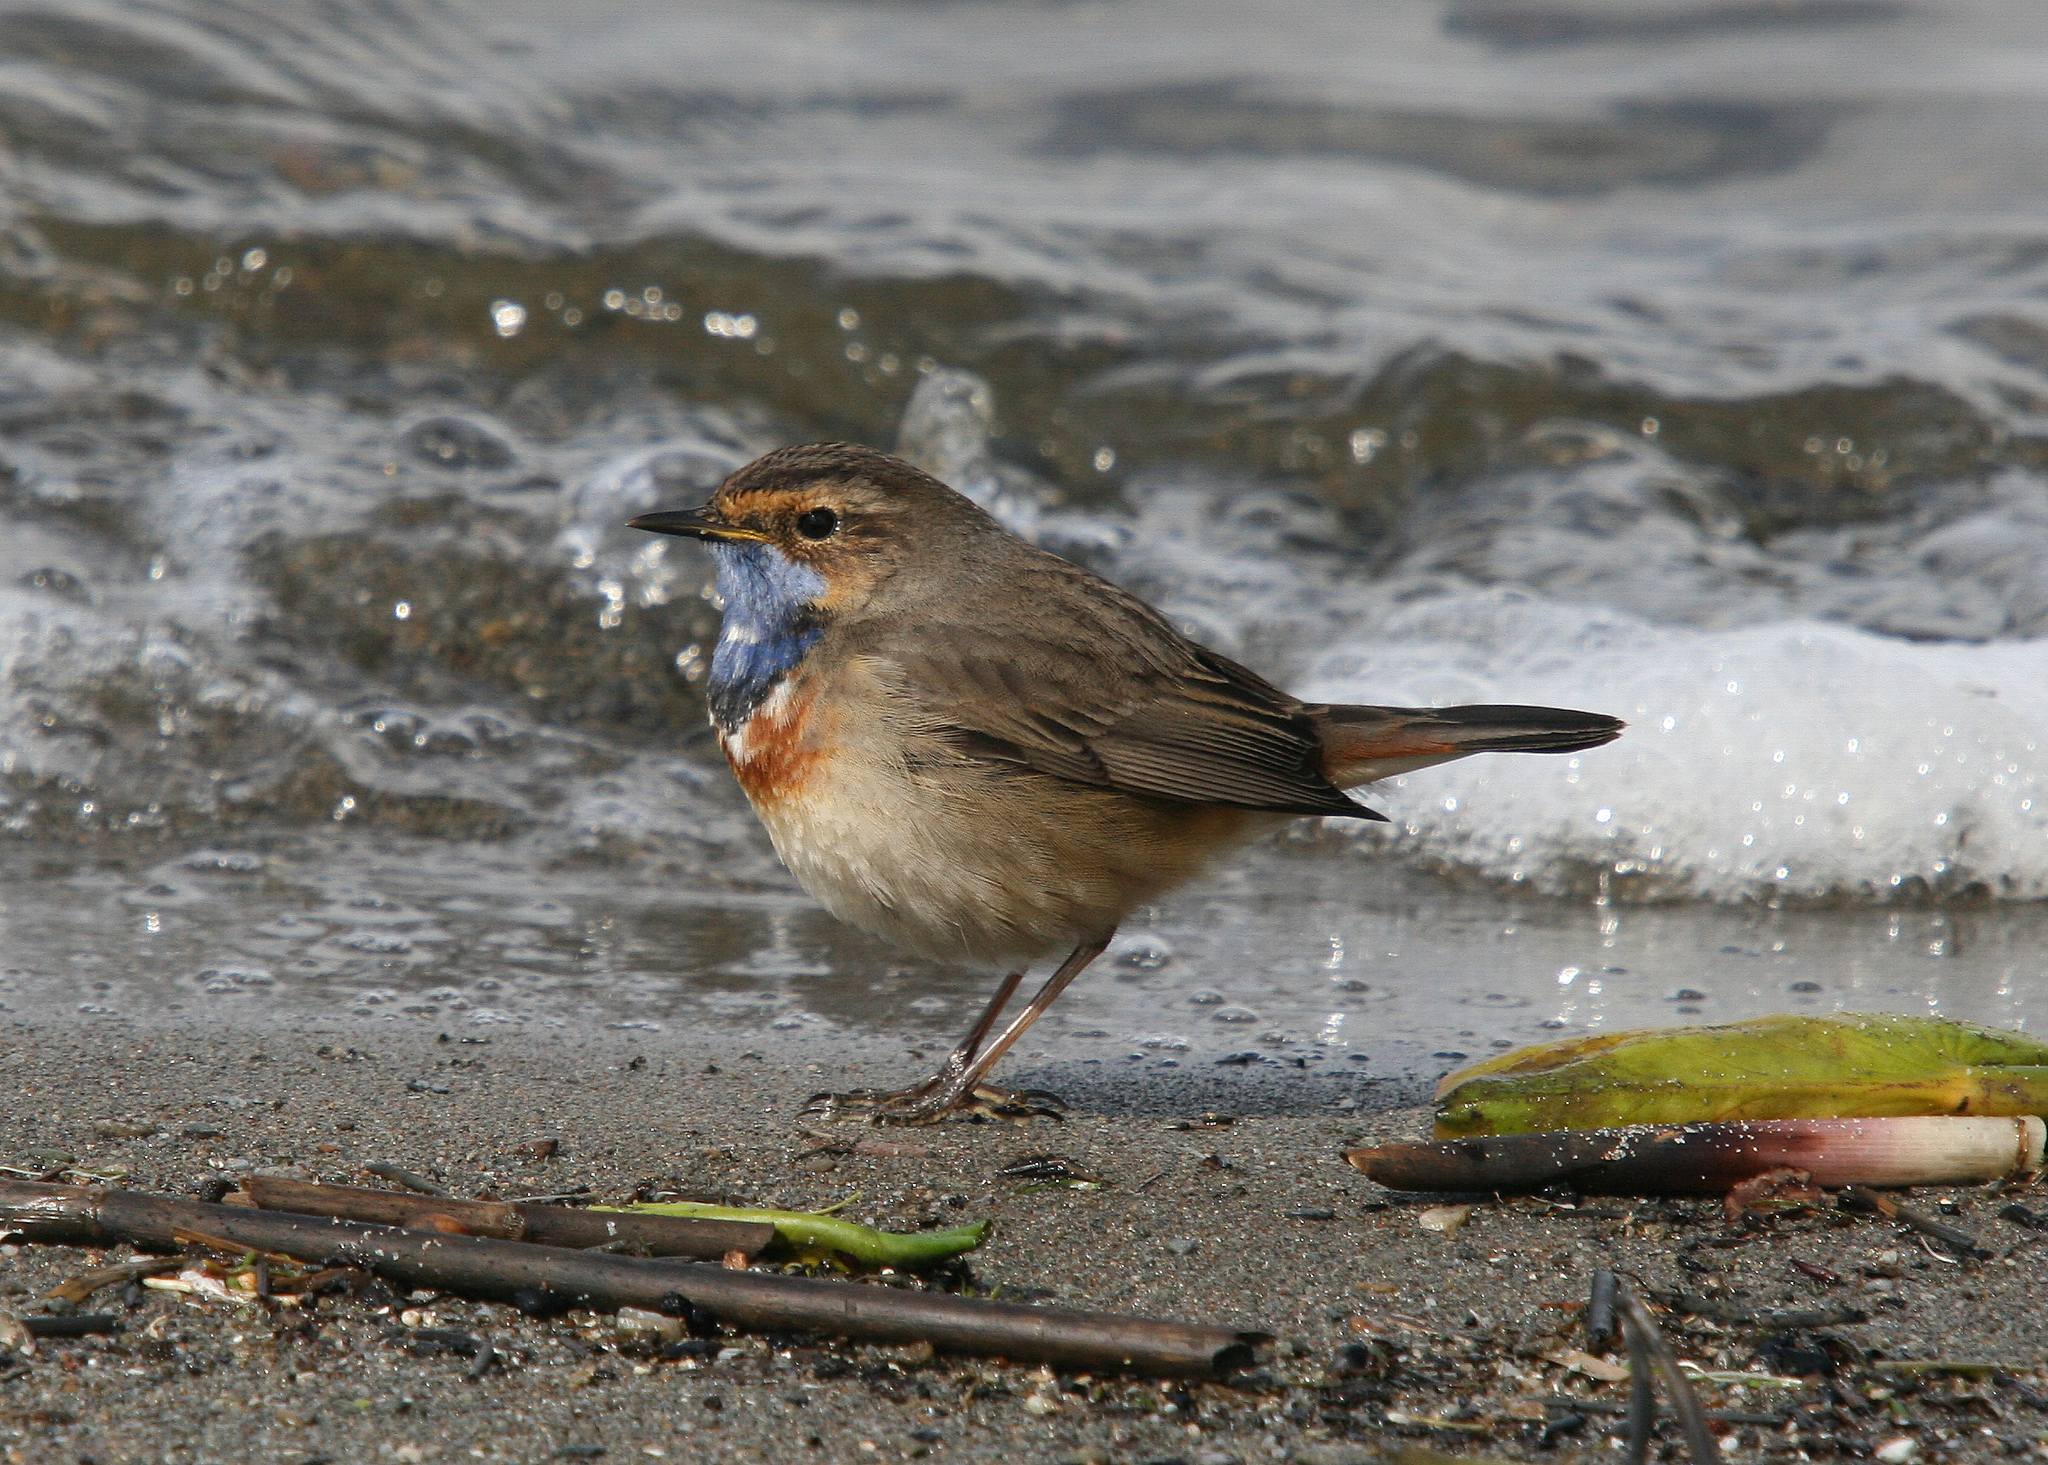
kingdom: Animalia
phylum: Chordata
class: Aves
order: Passeriformes
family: Muscicapidae
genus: Luscinia
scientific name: Luscinia svecica
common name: Bluethroat
